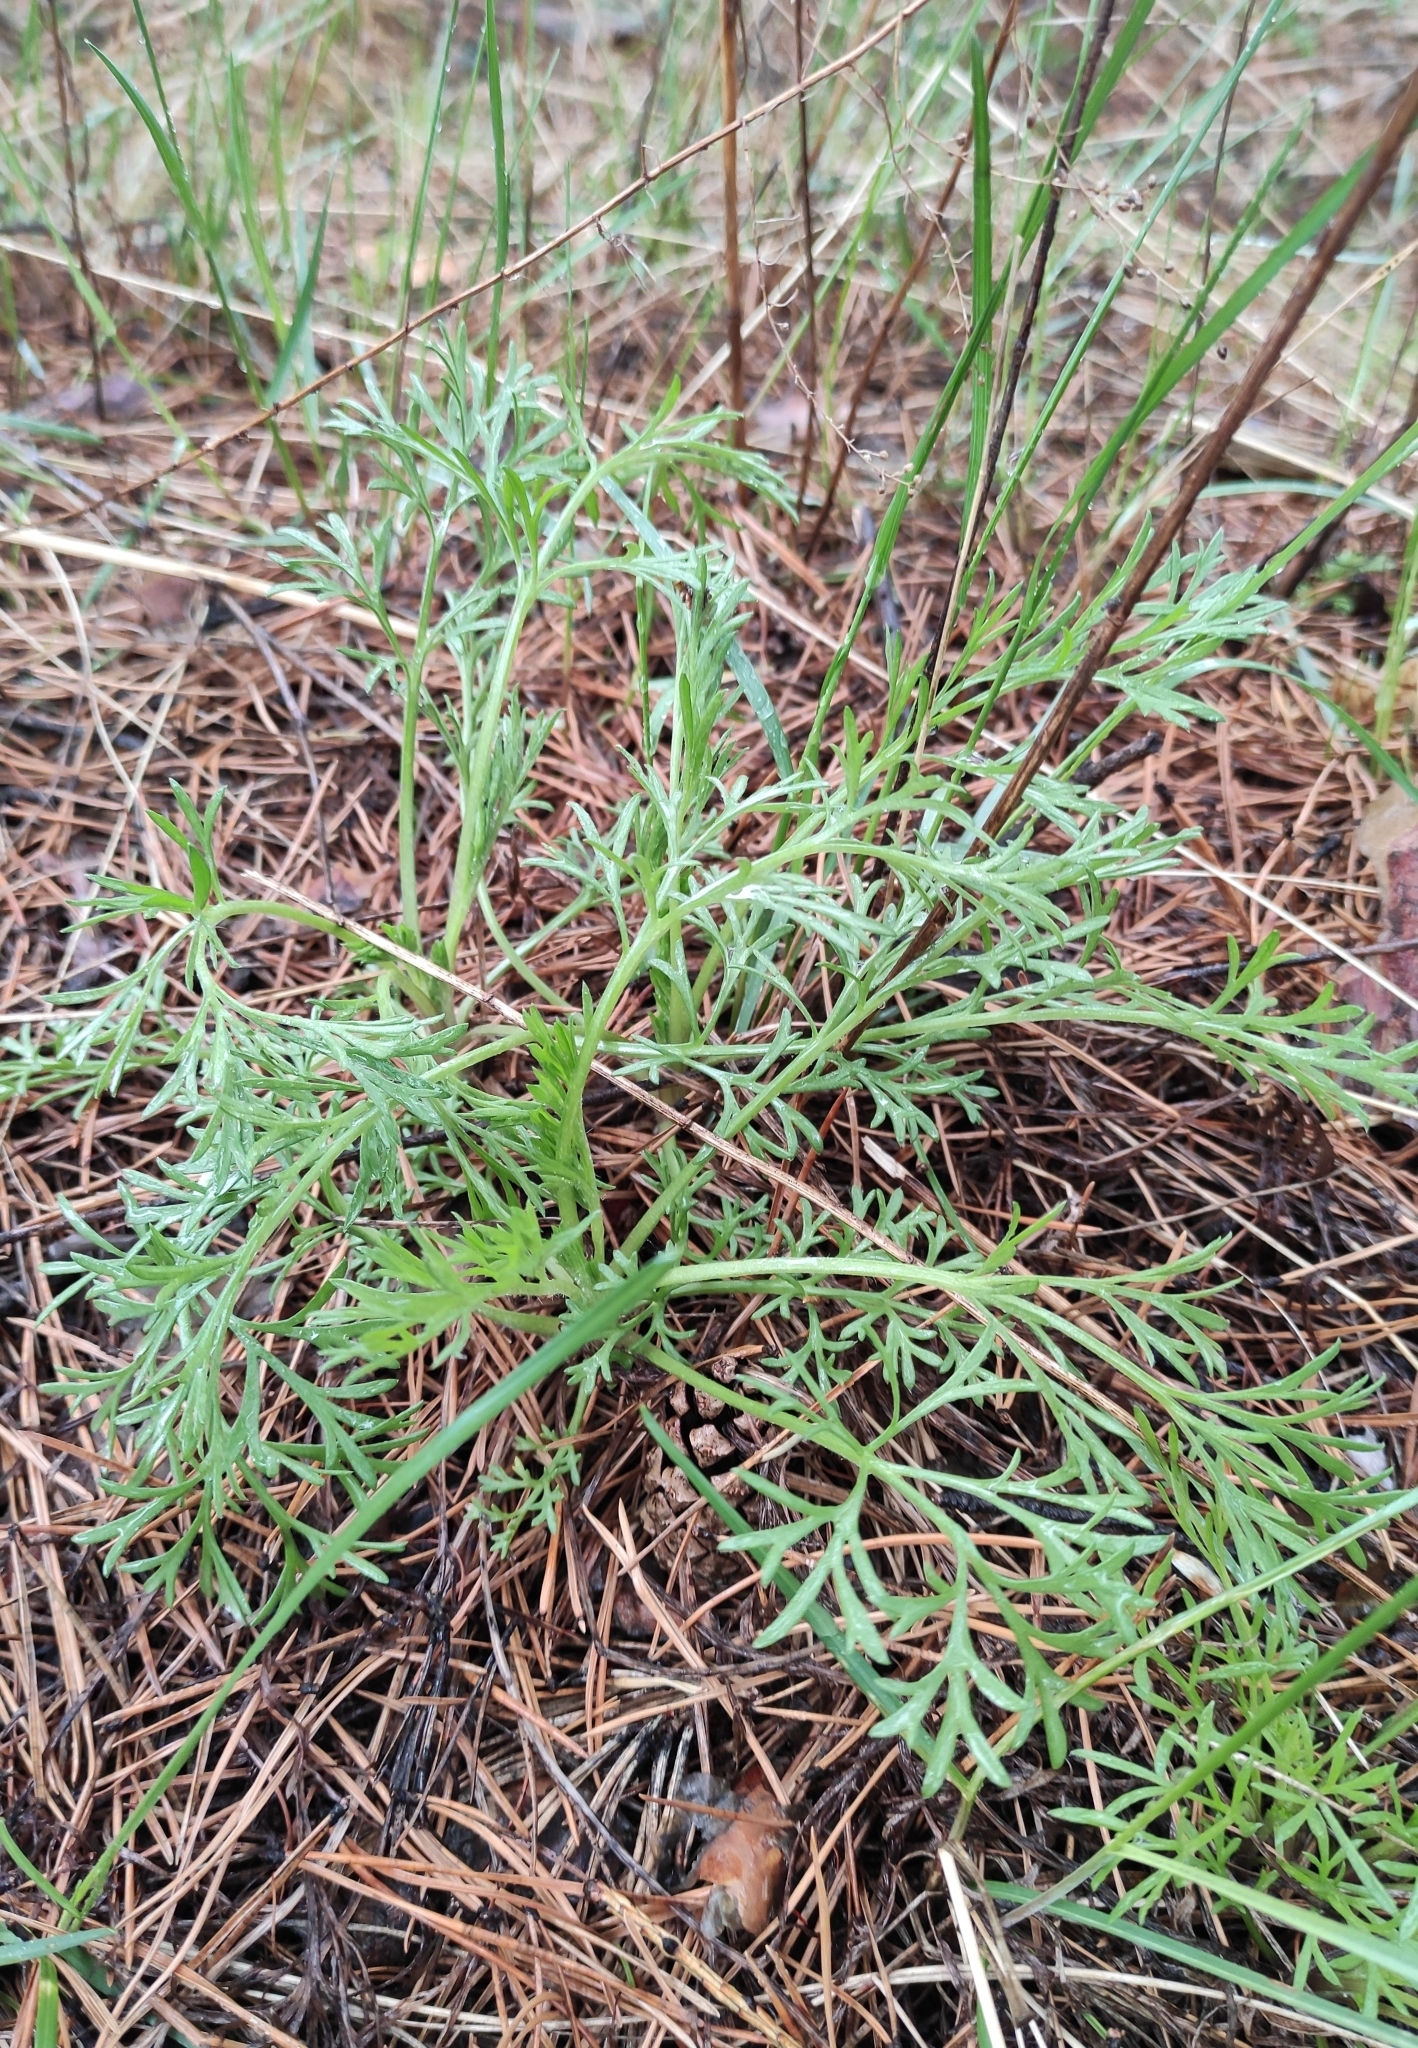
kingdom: Plantae
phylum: Tracheophyta
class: Magnoliopsida
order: Asterales
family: Asteraceae
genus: Artemisia
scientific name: Artemisia pubescens
